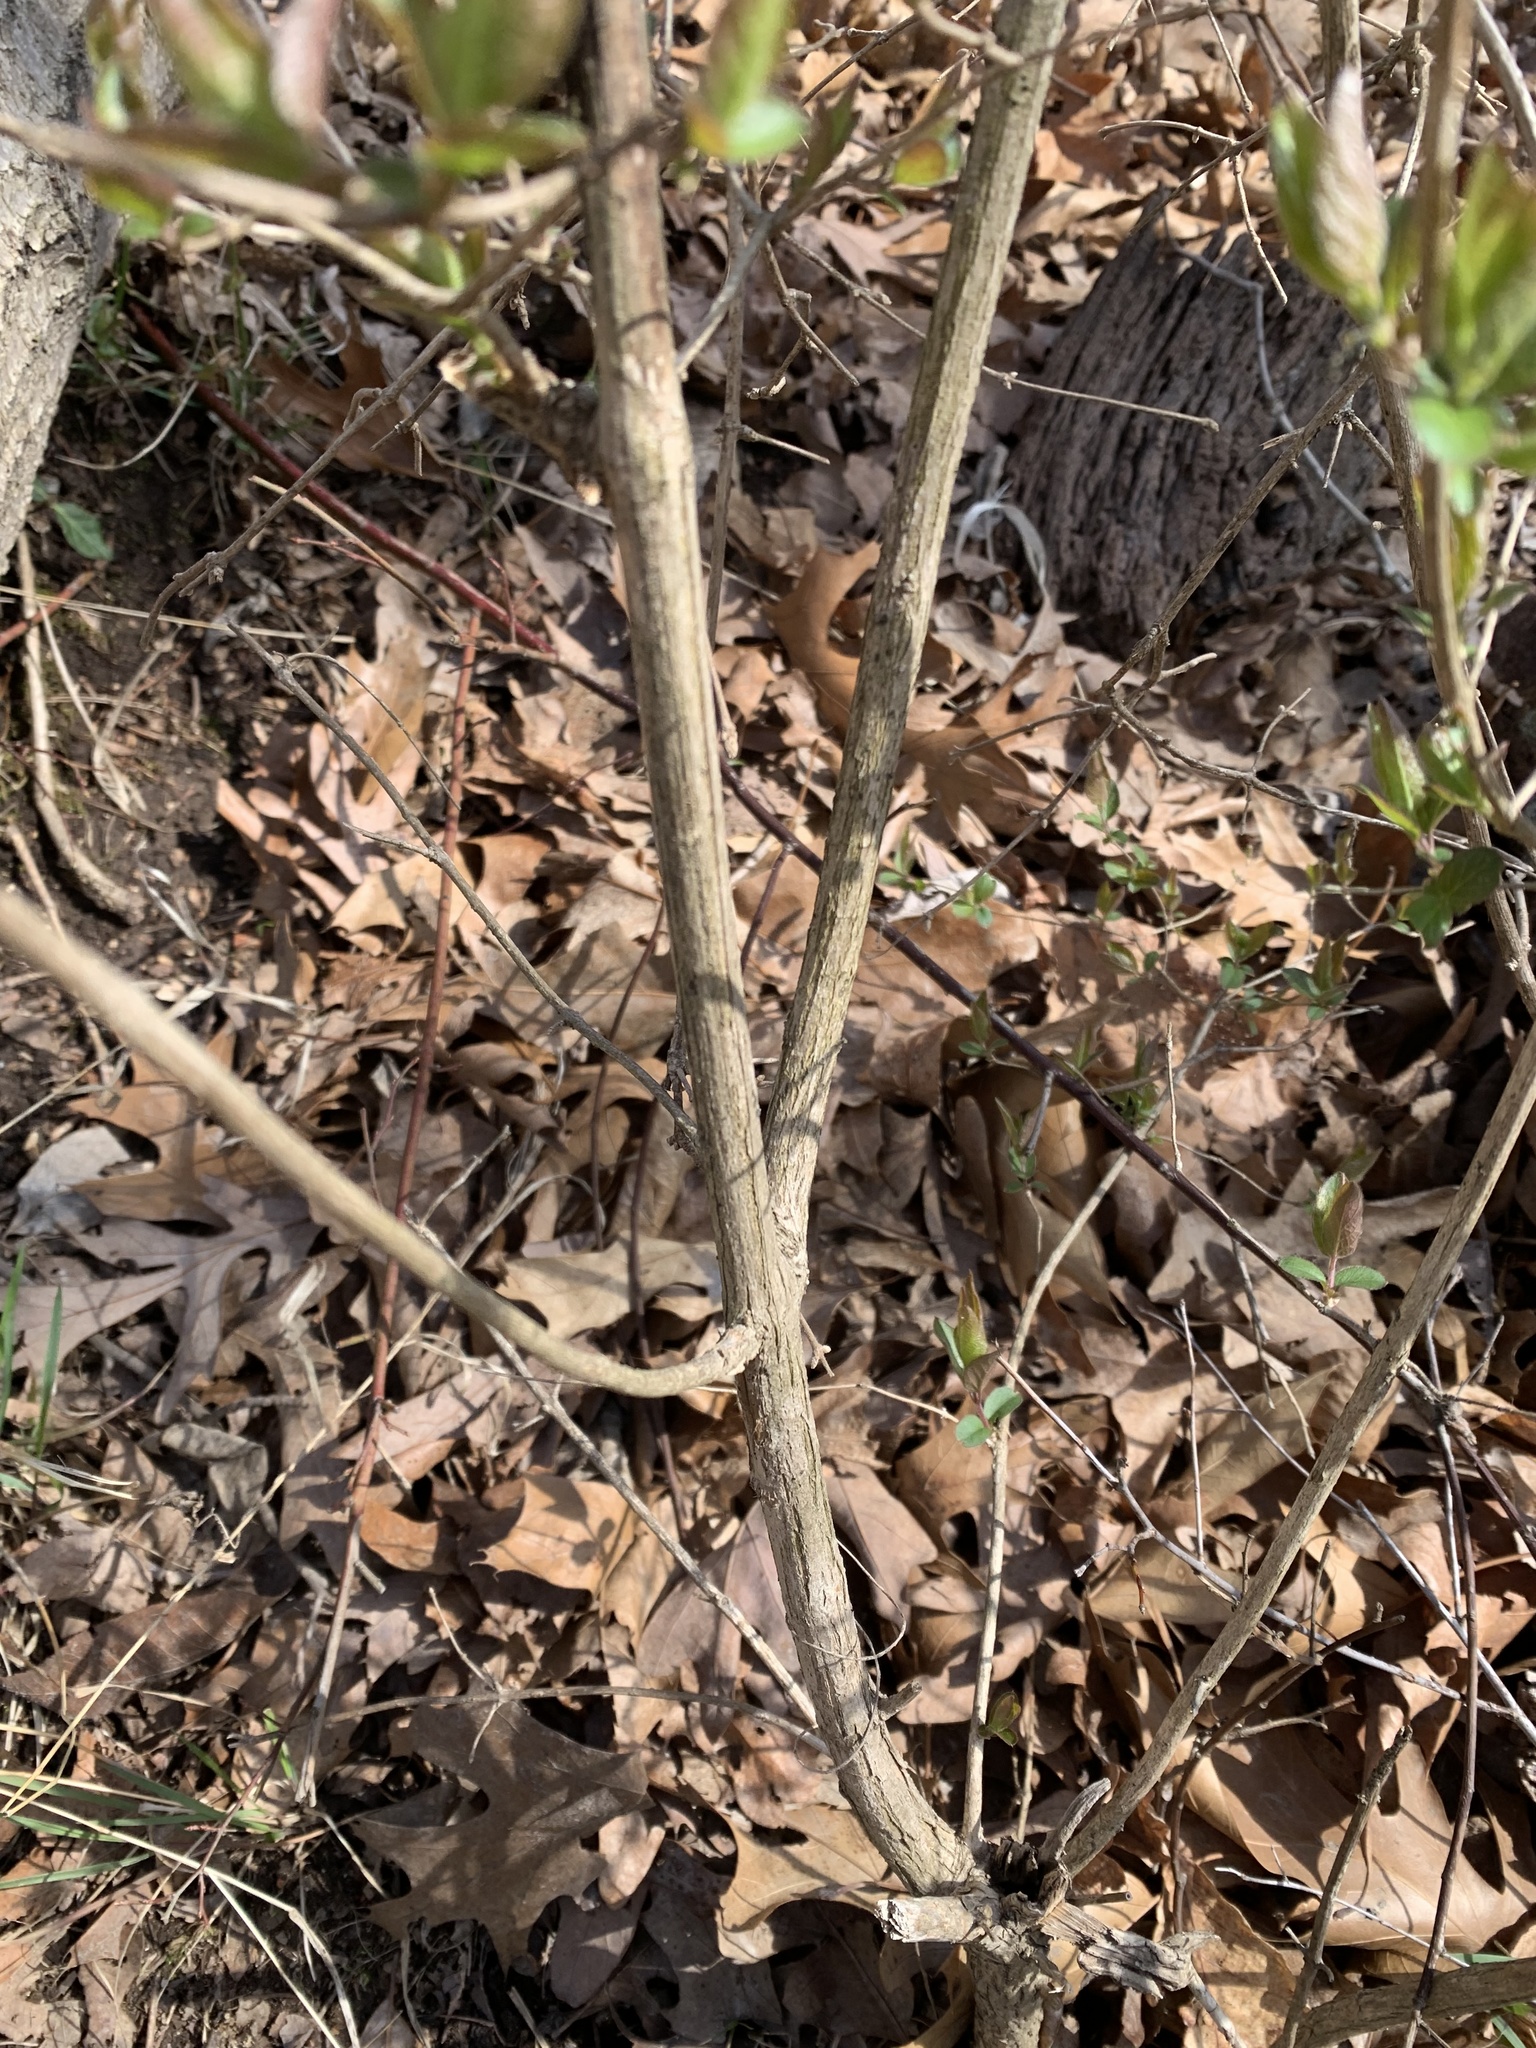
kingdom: Plantae
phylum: Tracheophyta
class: Magnoliopsida
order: Dipsacales
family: Caprifoliaceae
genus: Lonicera
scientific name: Lonicera maackii
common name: Amur honeysuckle
